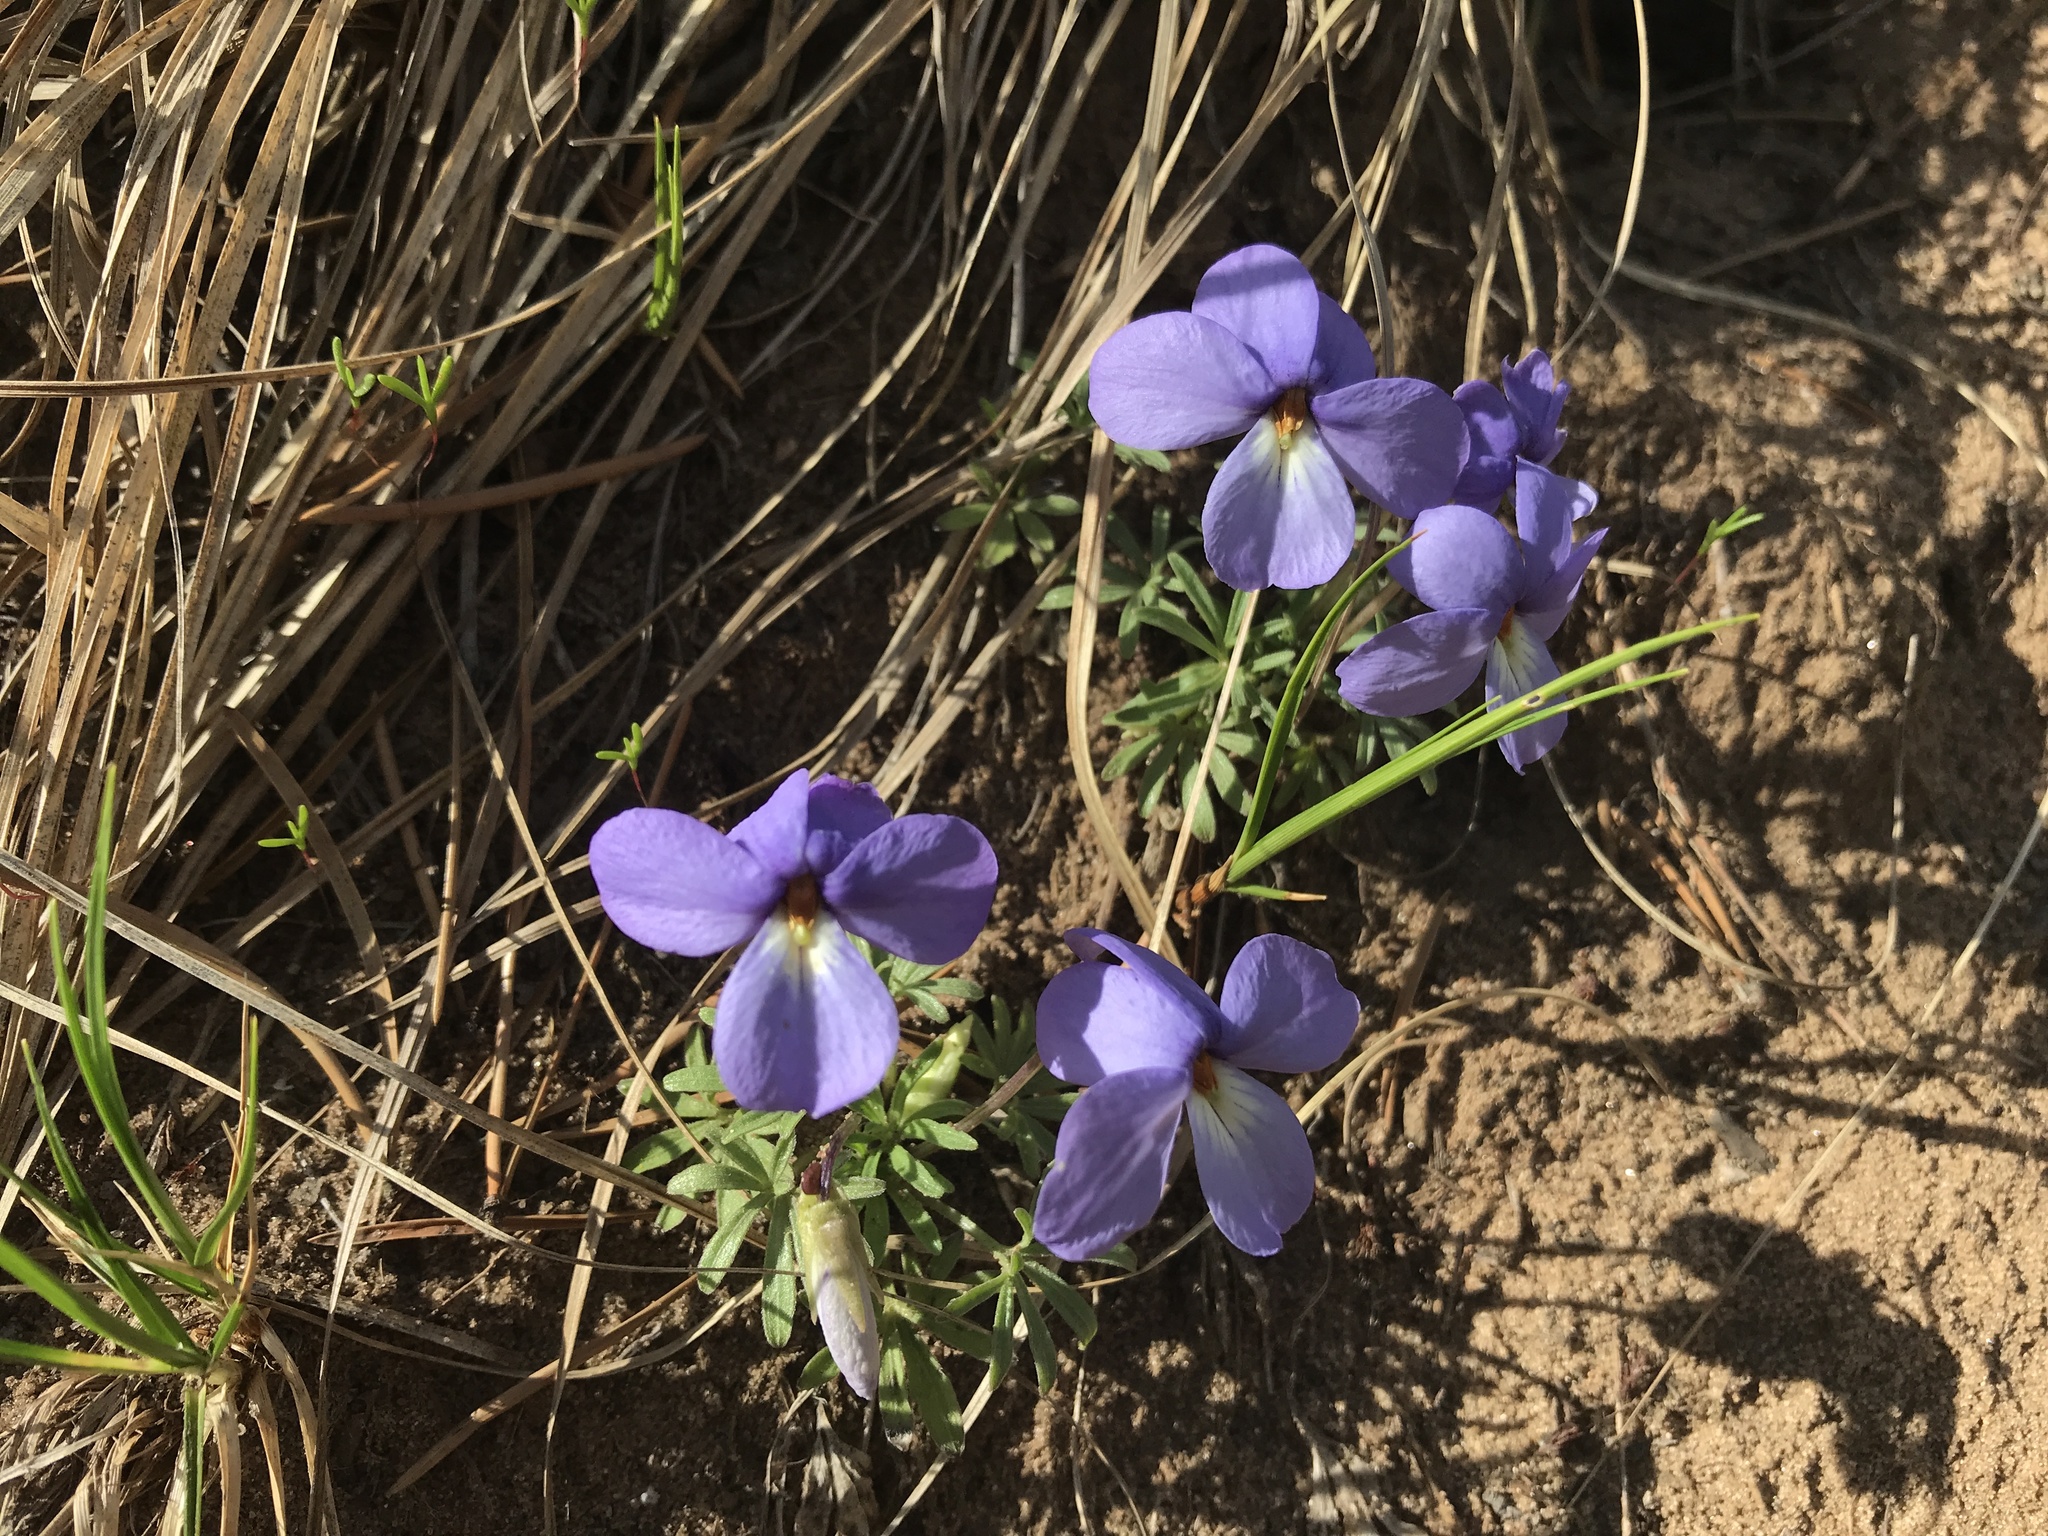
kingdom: Plantae
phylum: Tracheophyta
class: Magnoliopsida
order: Malpighiales
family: Violaceae
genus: Viola
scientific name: Viola pedata
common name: Pansy violet
